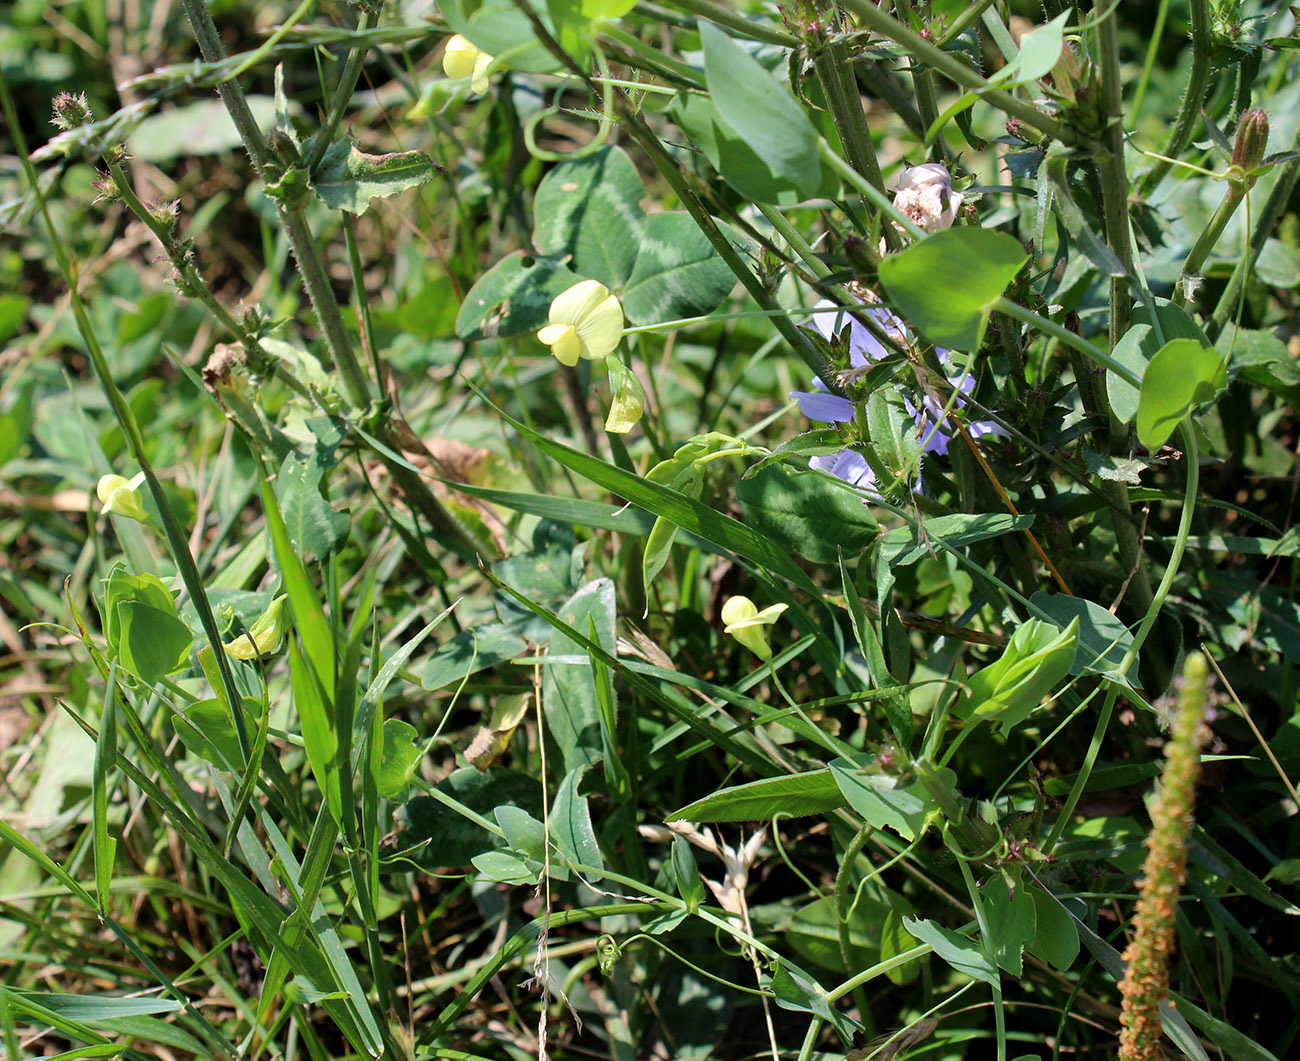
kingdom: Plantae
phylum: Tracheophyta
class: Magnoliopsida
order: Fabales
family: Fabaceae
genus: Lathyrus
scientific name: Lathyrus aphaca
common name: Yellow vetchling
